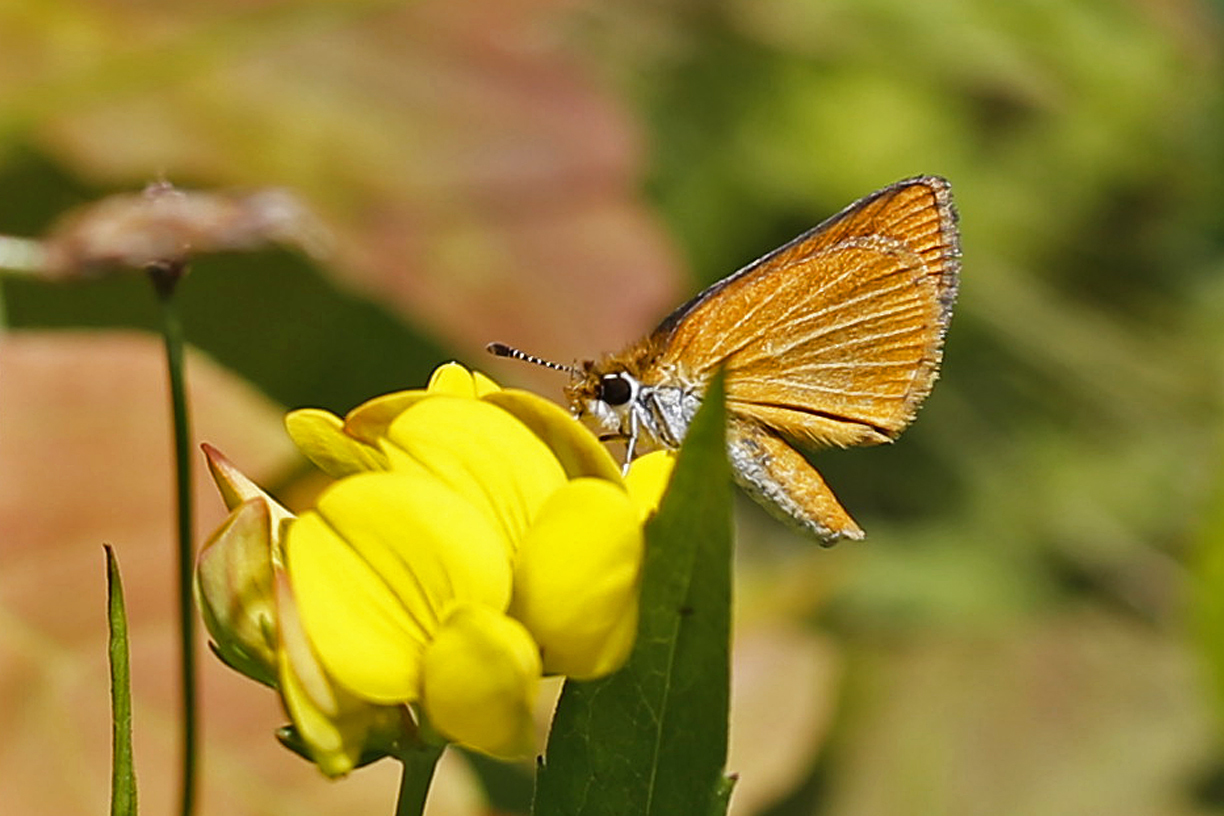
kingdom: Animalia
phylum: Arthropoda
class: Insecta
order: Lepidoptera
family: Hesperiidae
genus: Ancyloxypha
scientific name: Ancyloxypha numitor
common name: Least skipper
